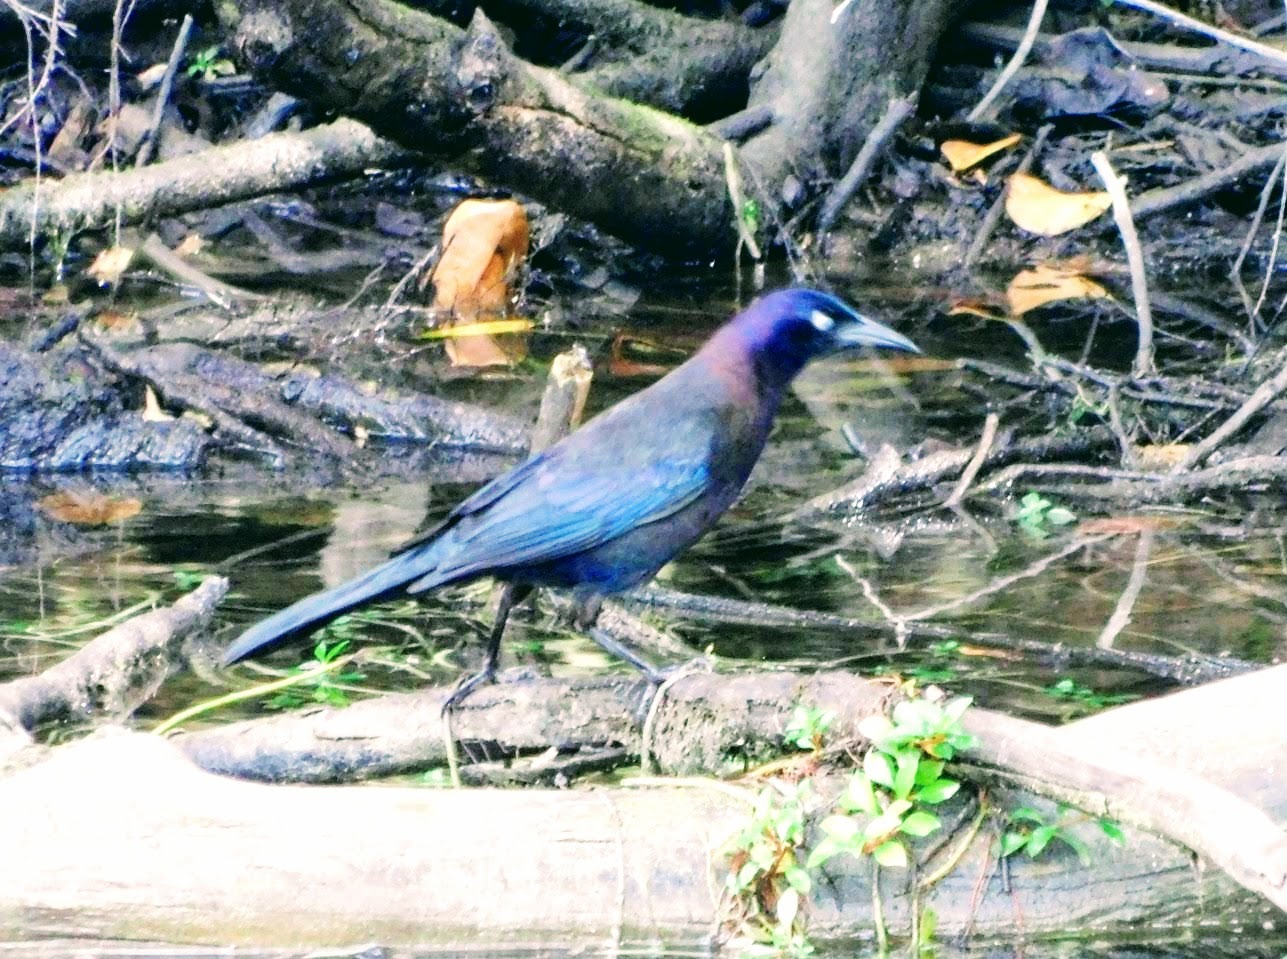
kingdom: Animalia
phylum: Chordata
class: Aves
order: Passeriformes
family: Icteridae
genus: Quiscalus
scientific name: Quiscalus quiscula
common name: Common grackle
